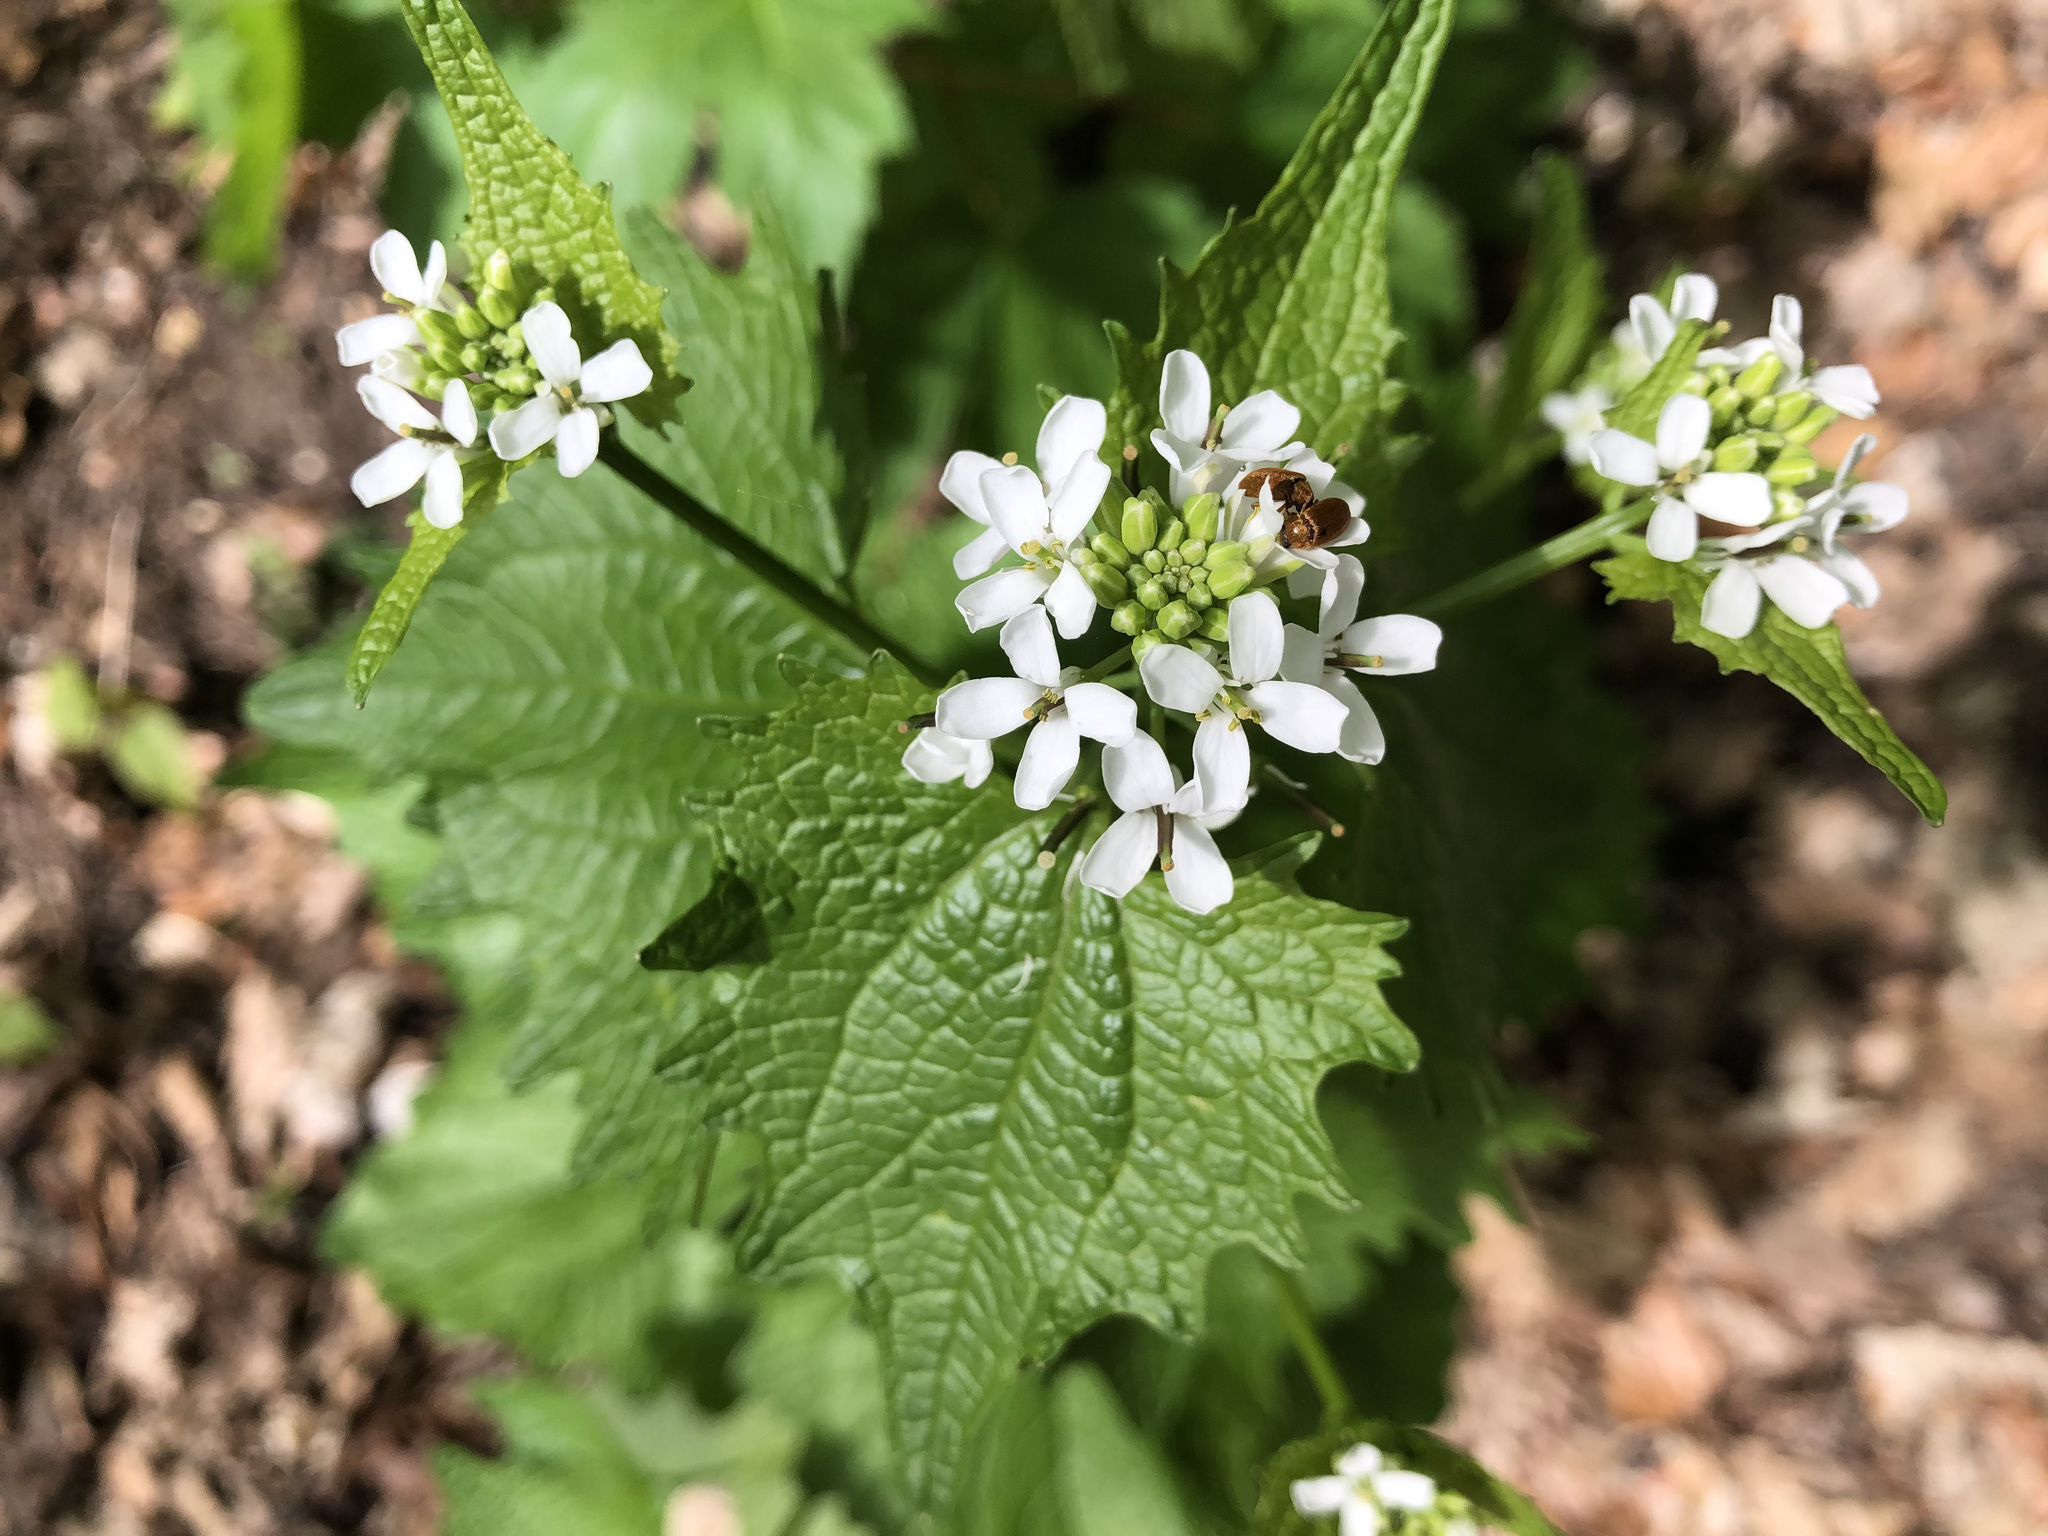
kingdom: Plantae
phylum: Tracheophyta
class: Magnoliopsida
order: Brassicales
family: Brassicaceae
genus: Alliaria
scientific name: Alliaria petiolata
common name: Garlic mustard
